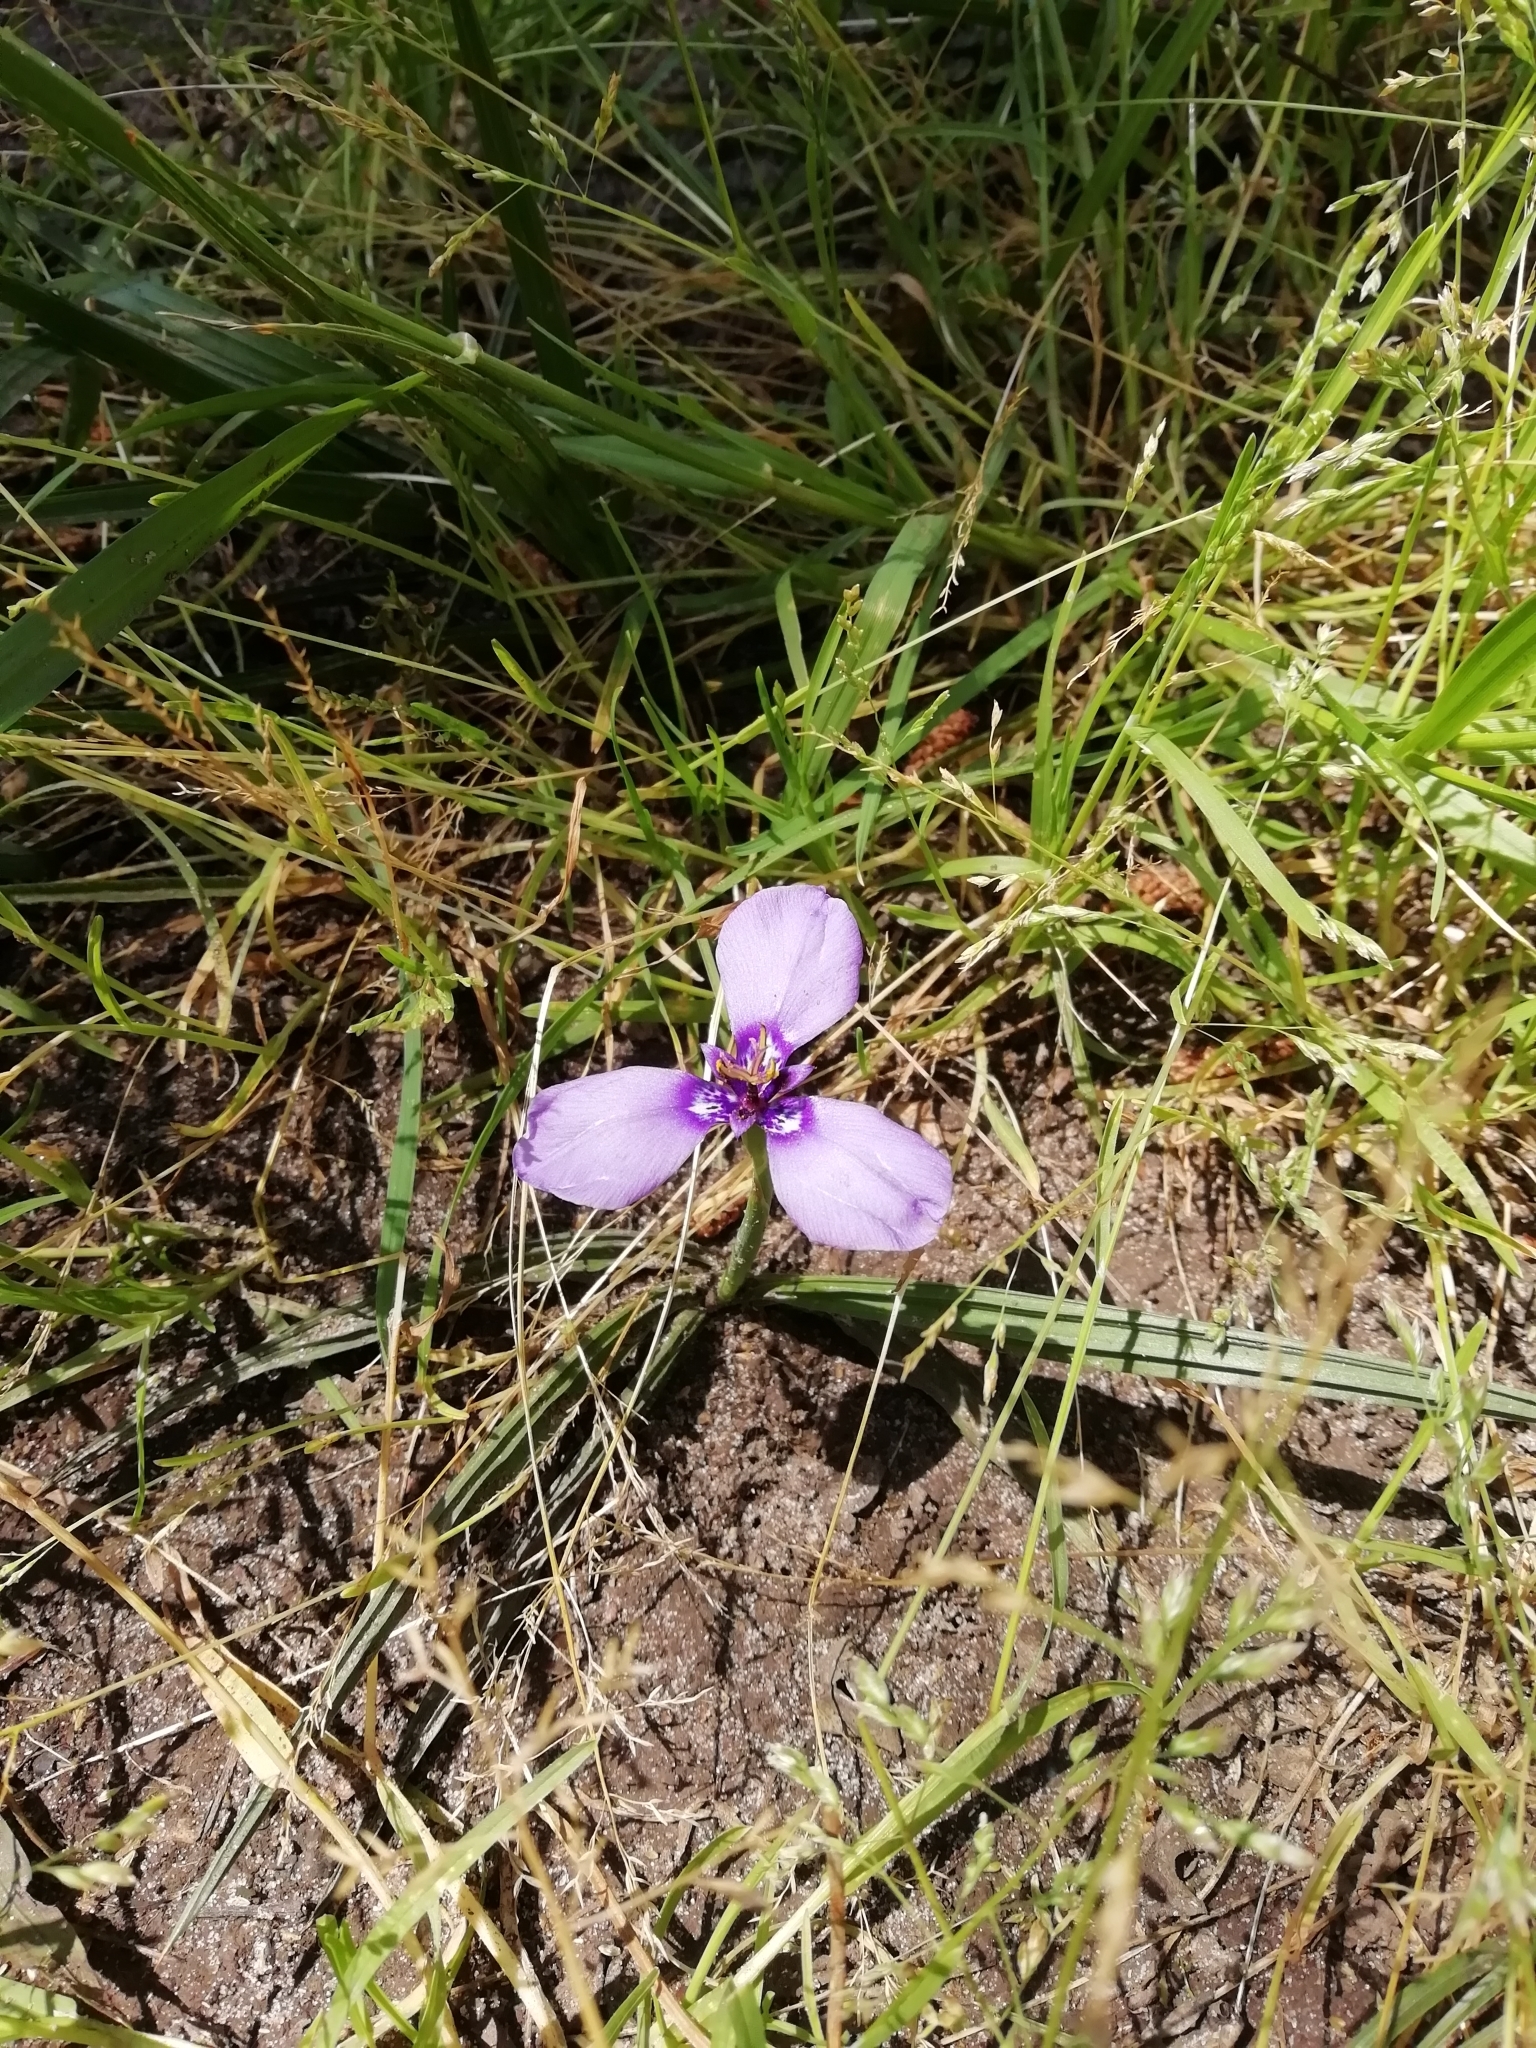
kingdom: Plantae
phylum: Tracheophyta
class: Liliopsida
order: Asparagales
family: Iridaceae
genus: Herbertia
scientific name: Herbertia lahue
